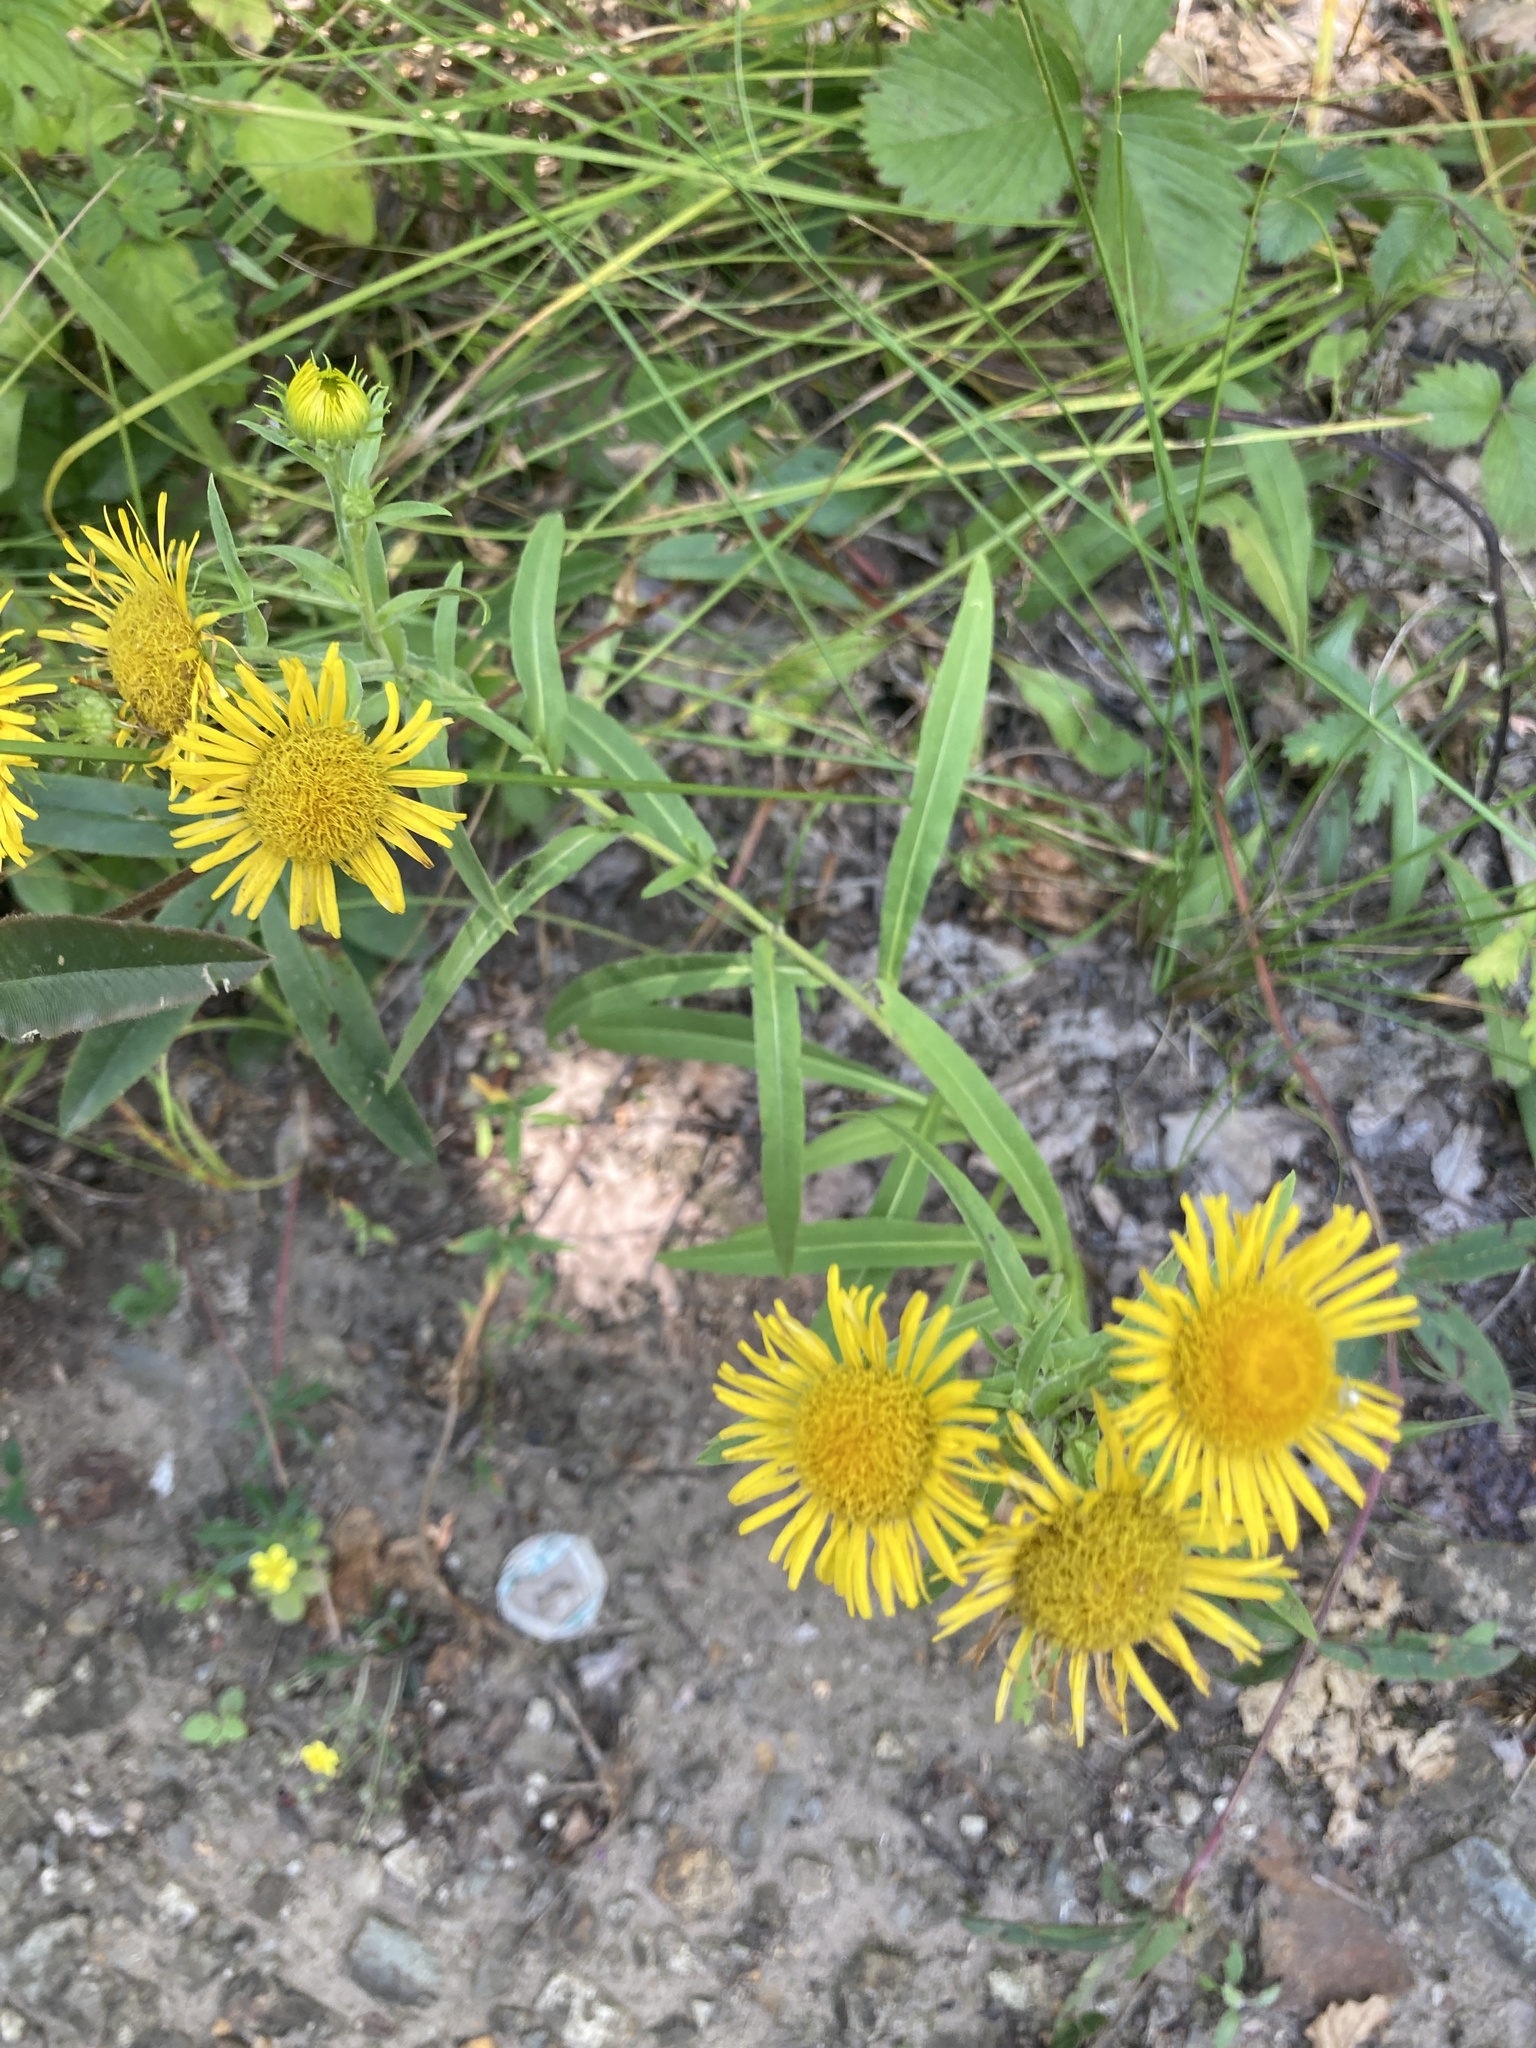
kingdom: Plantae
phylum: Tracheophyta
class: Magnoliopsida
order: Asterales
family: Asteraceae
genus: Pentanema
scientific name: Pentanema britannicum
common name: British elecampane
